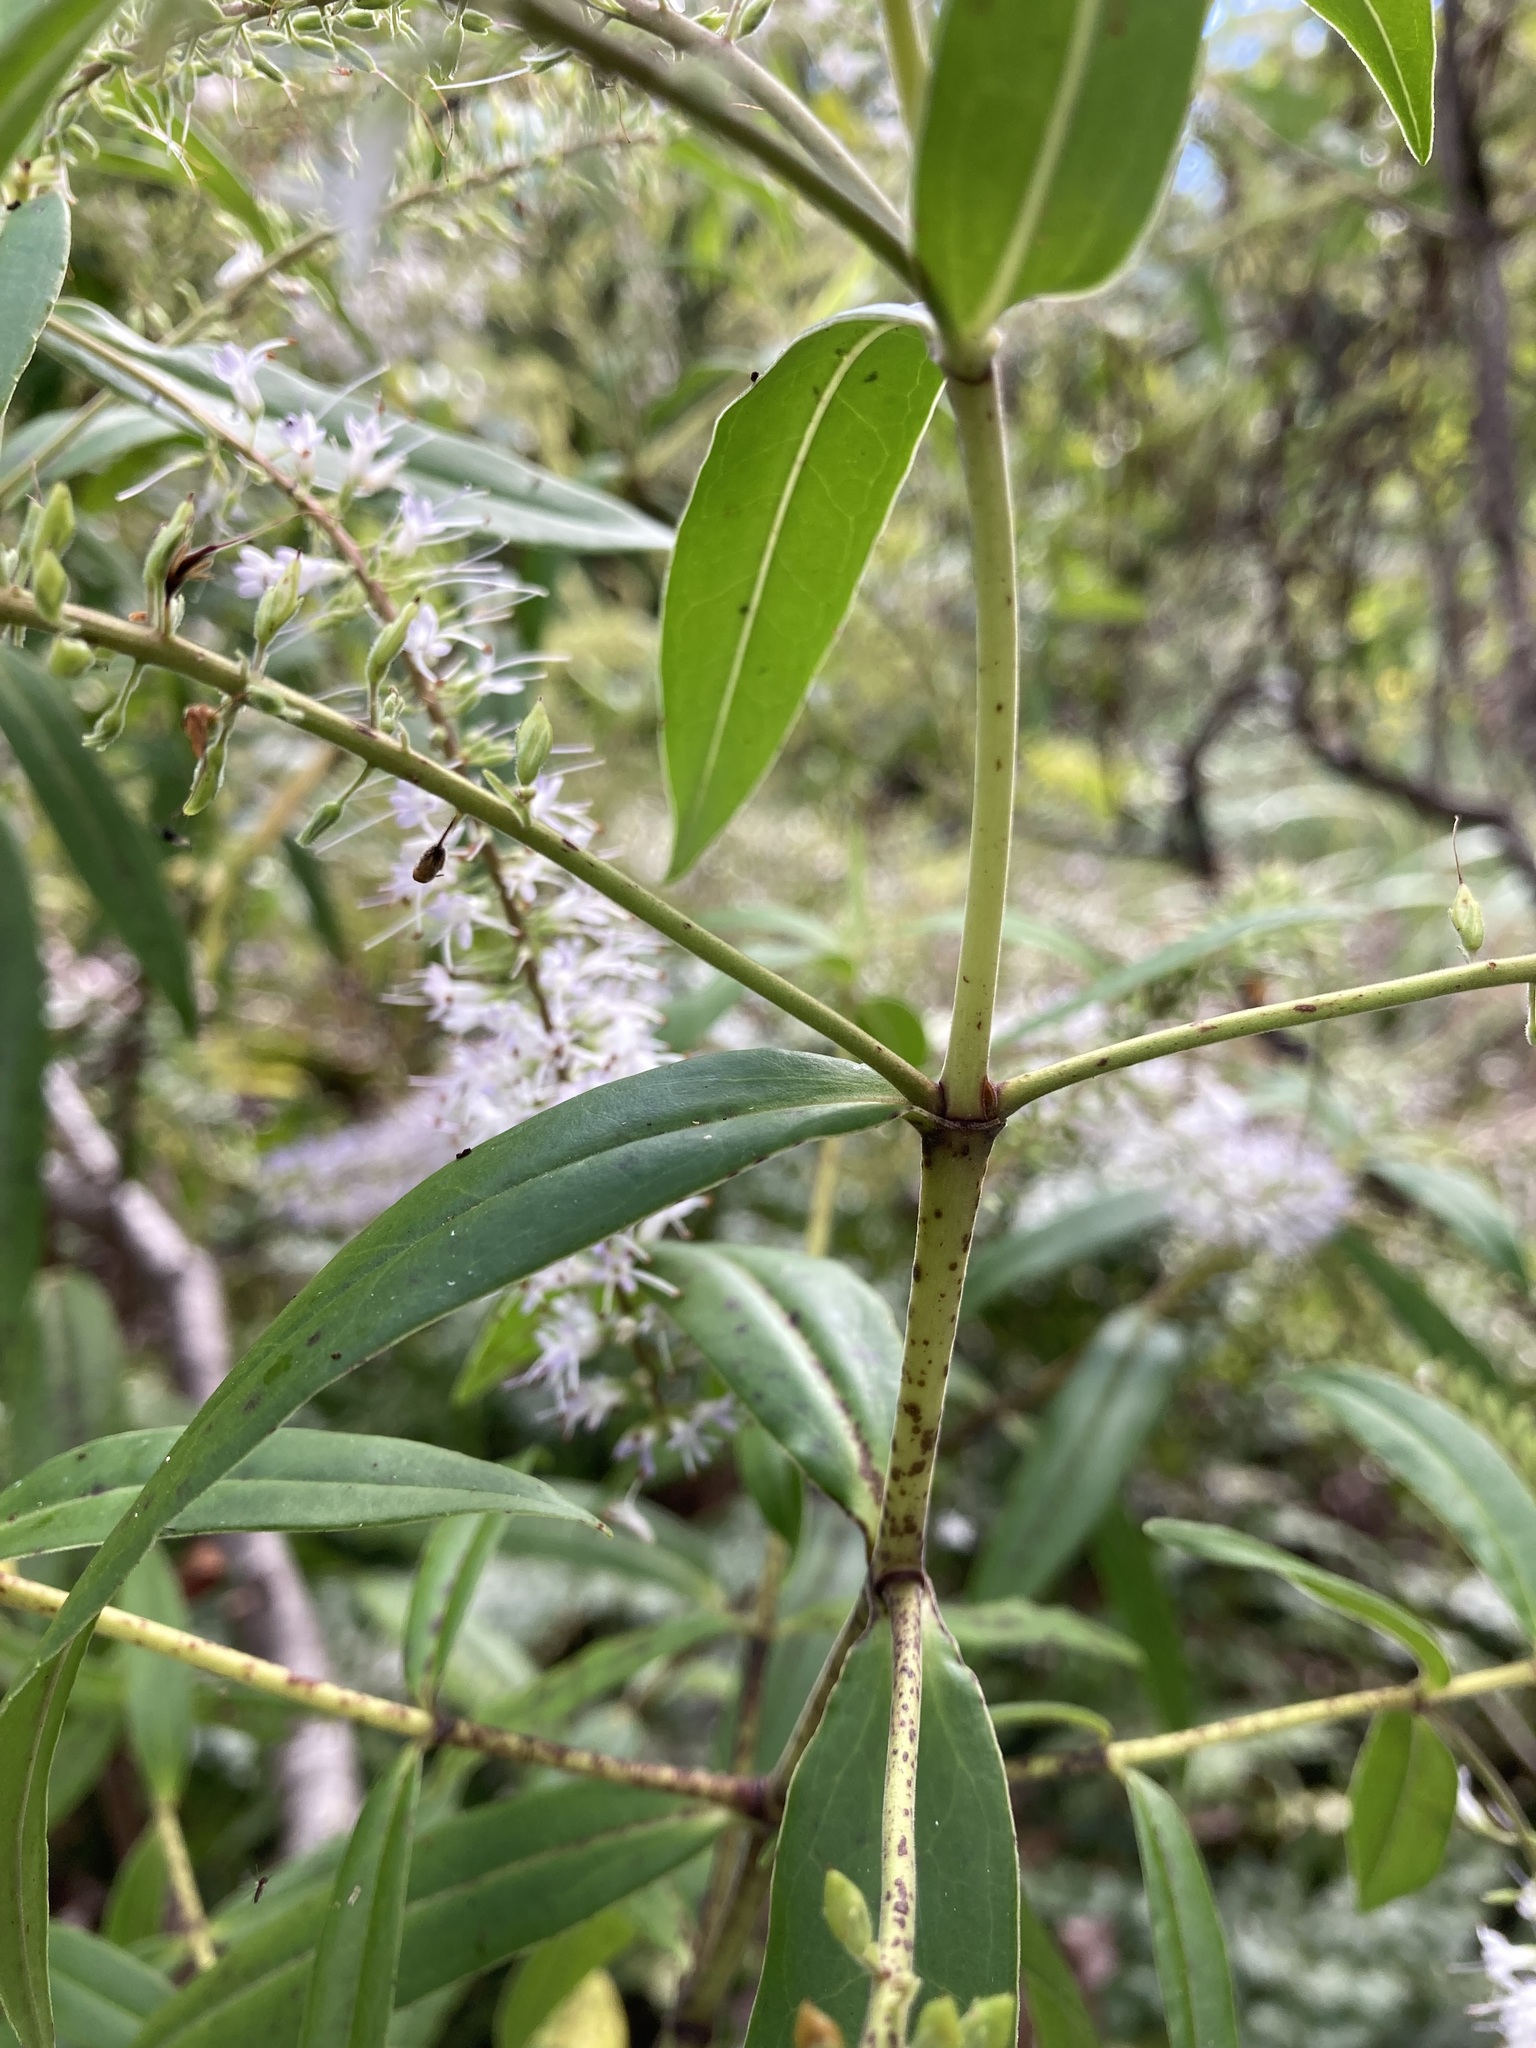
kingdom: Plantae
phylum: Tracheophyta
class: Magnoliopsida
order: Lamiales
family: Plantaginaceae
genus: Veronica
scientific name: Veronica stricta
